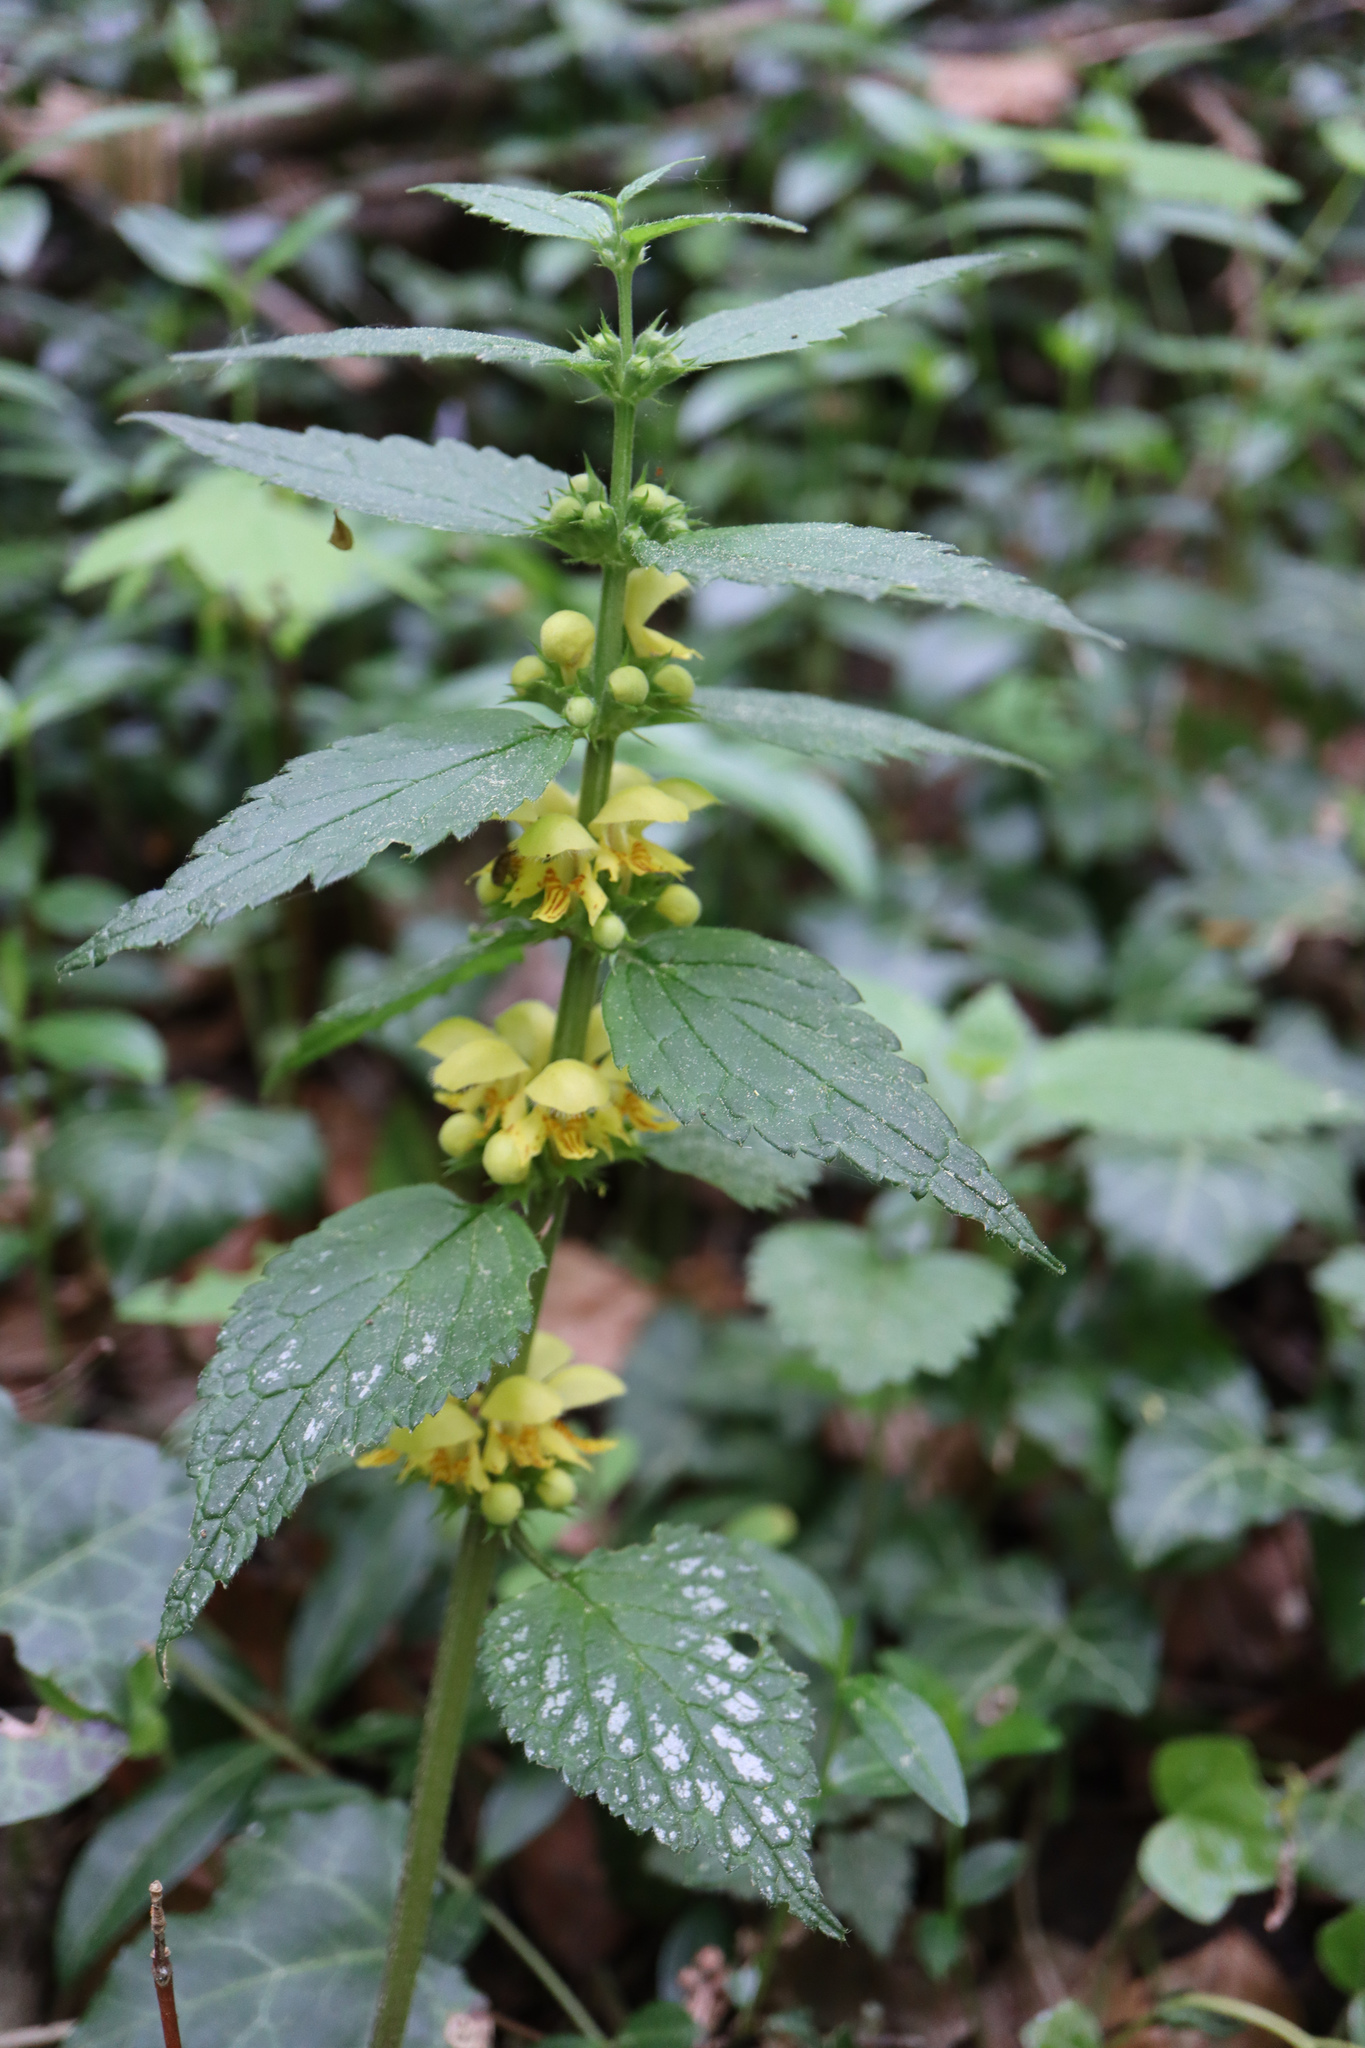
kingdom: Plantae
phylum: Tracheophyta
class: Magnoliopsida
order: Lamiales
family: Lamiaceae
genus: Lamium
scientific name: Lamium galeobdolon
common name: Yellow archangel
